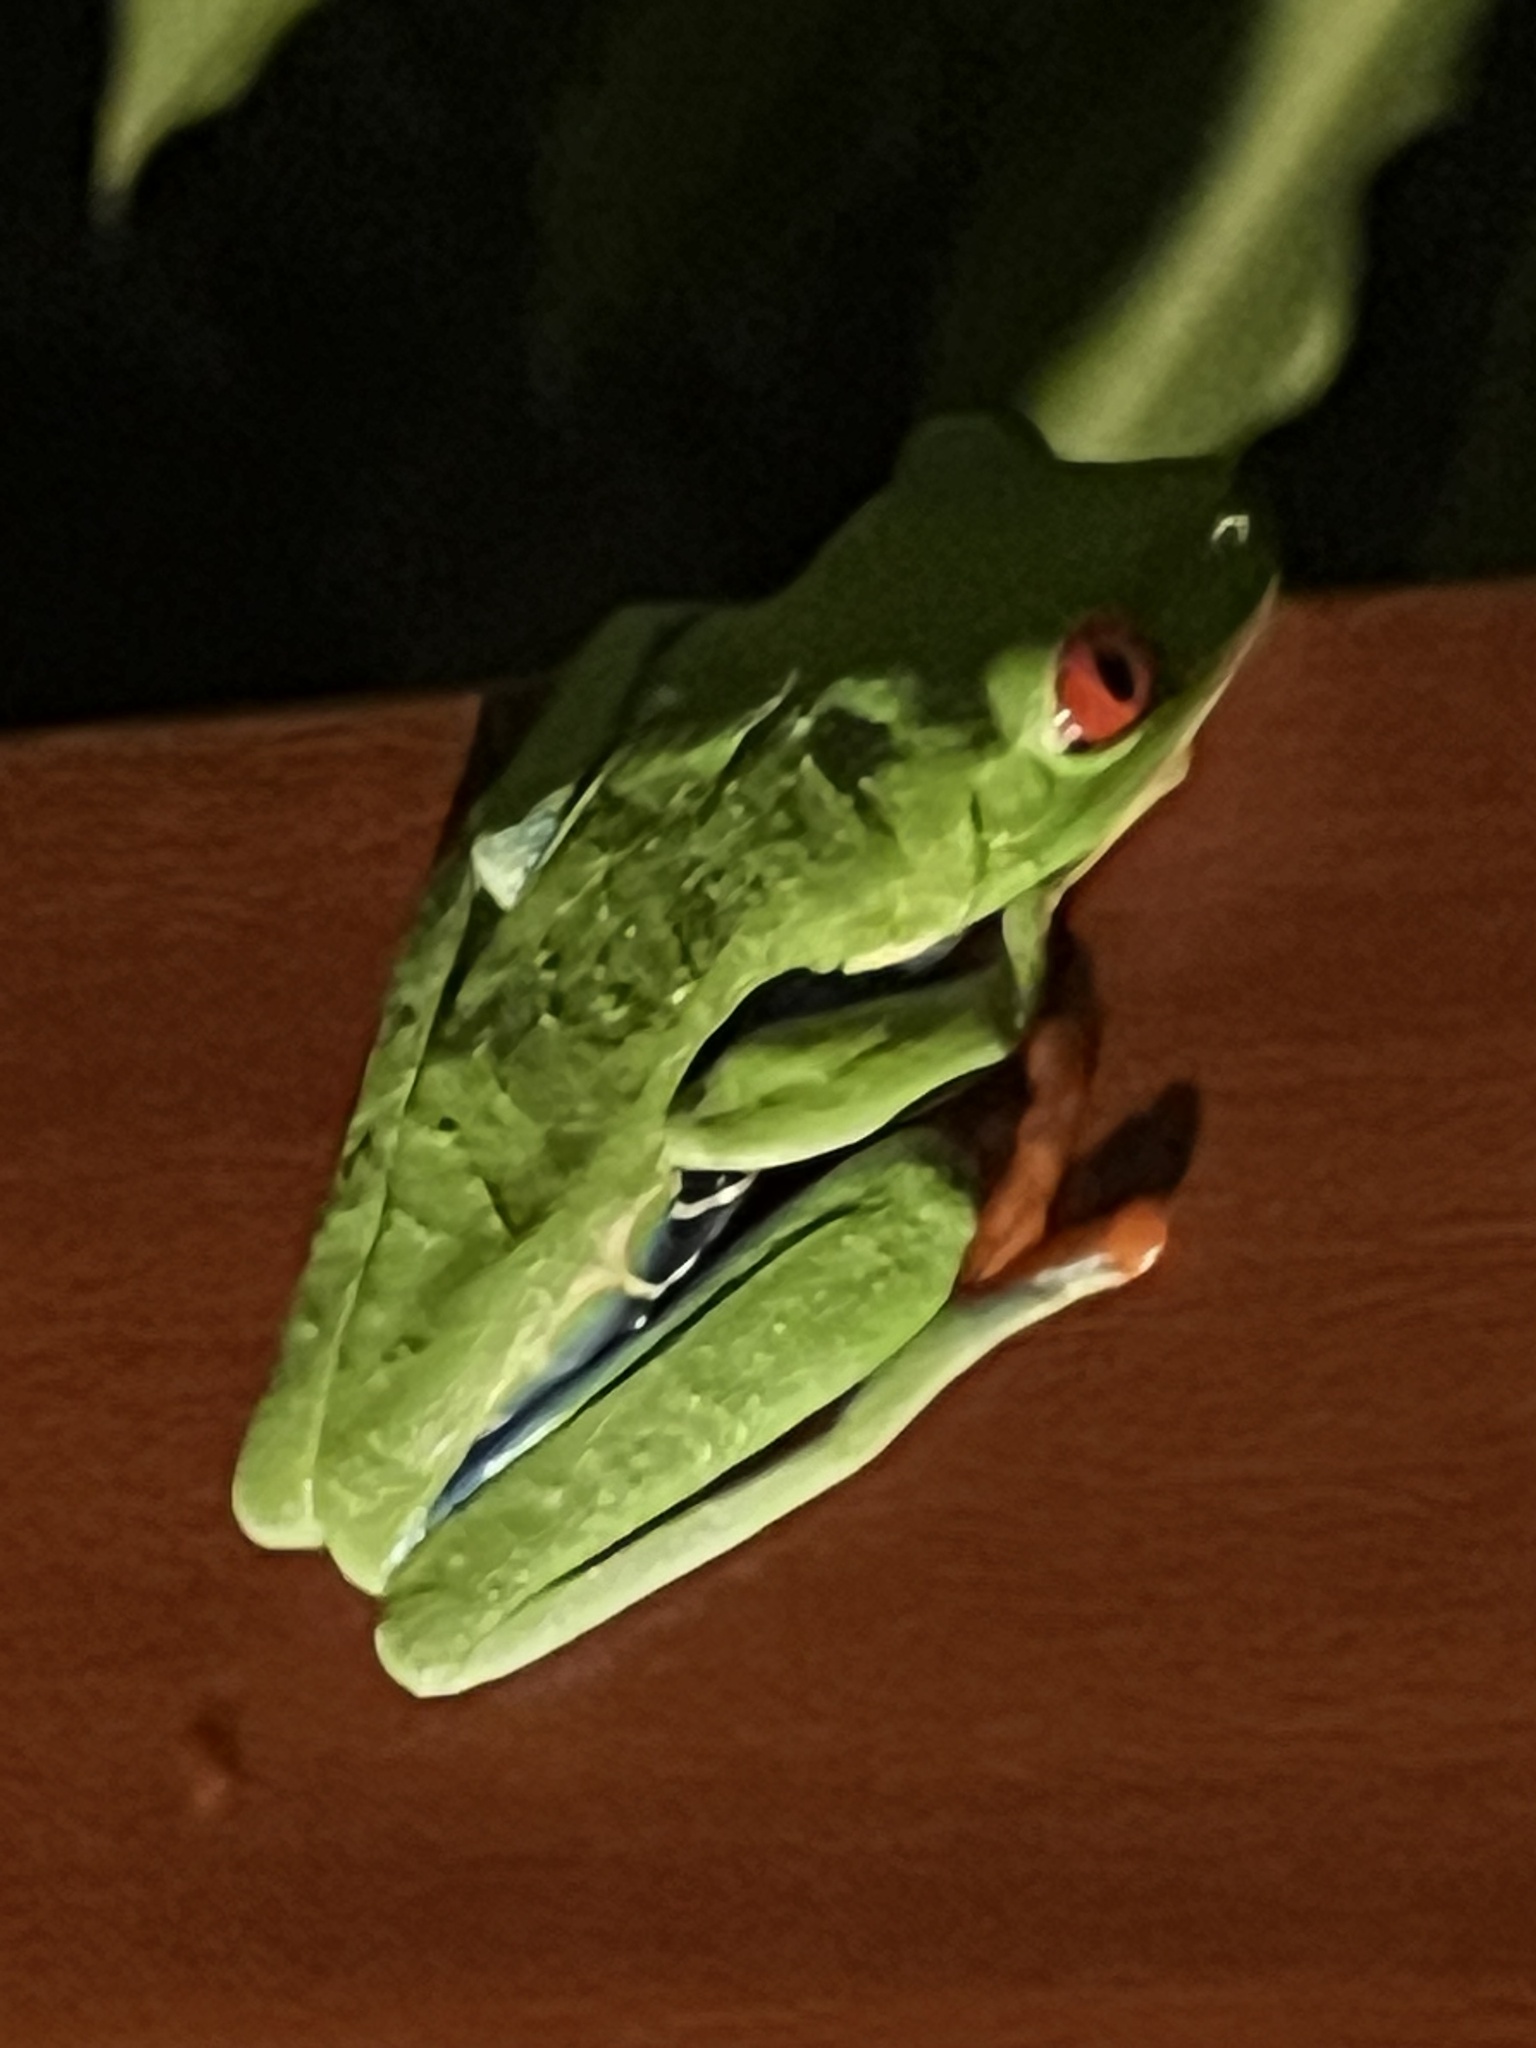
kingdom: Animalia
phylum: Chordata
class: Amphibia
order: Anura
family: Phyllomedusidae
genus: Agalychnis
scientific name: Agalychnis callidryas
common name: Red-eyed treefrog
